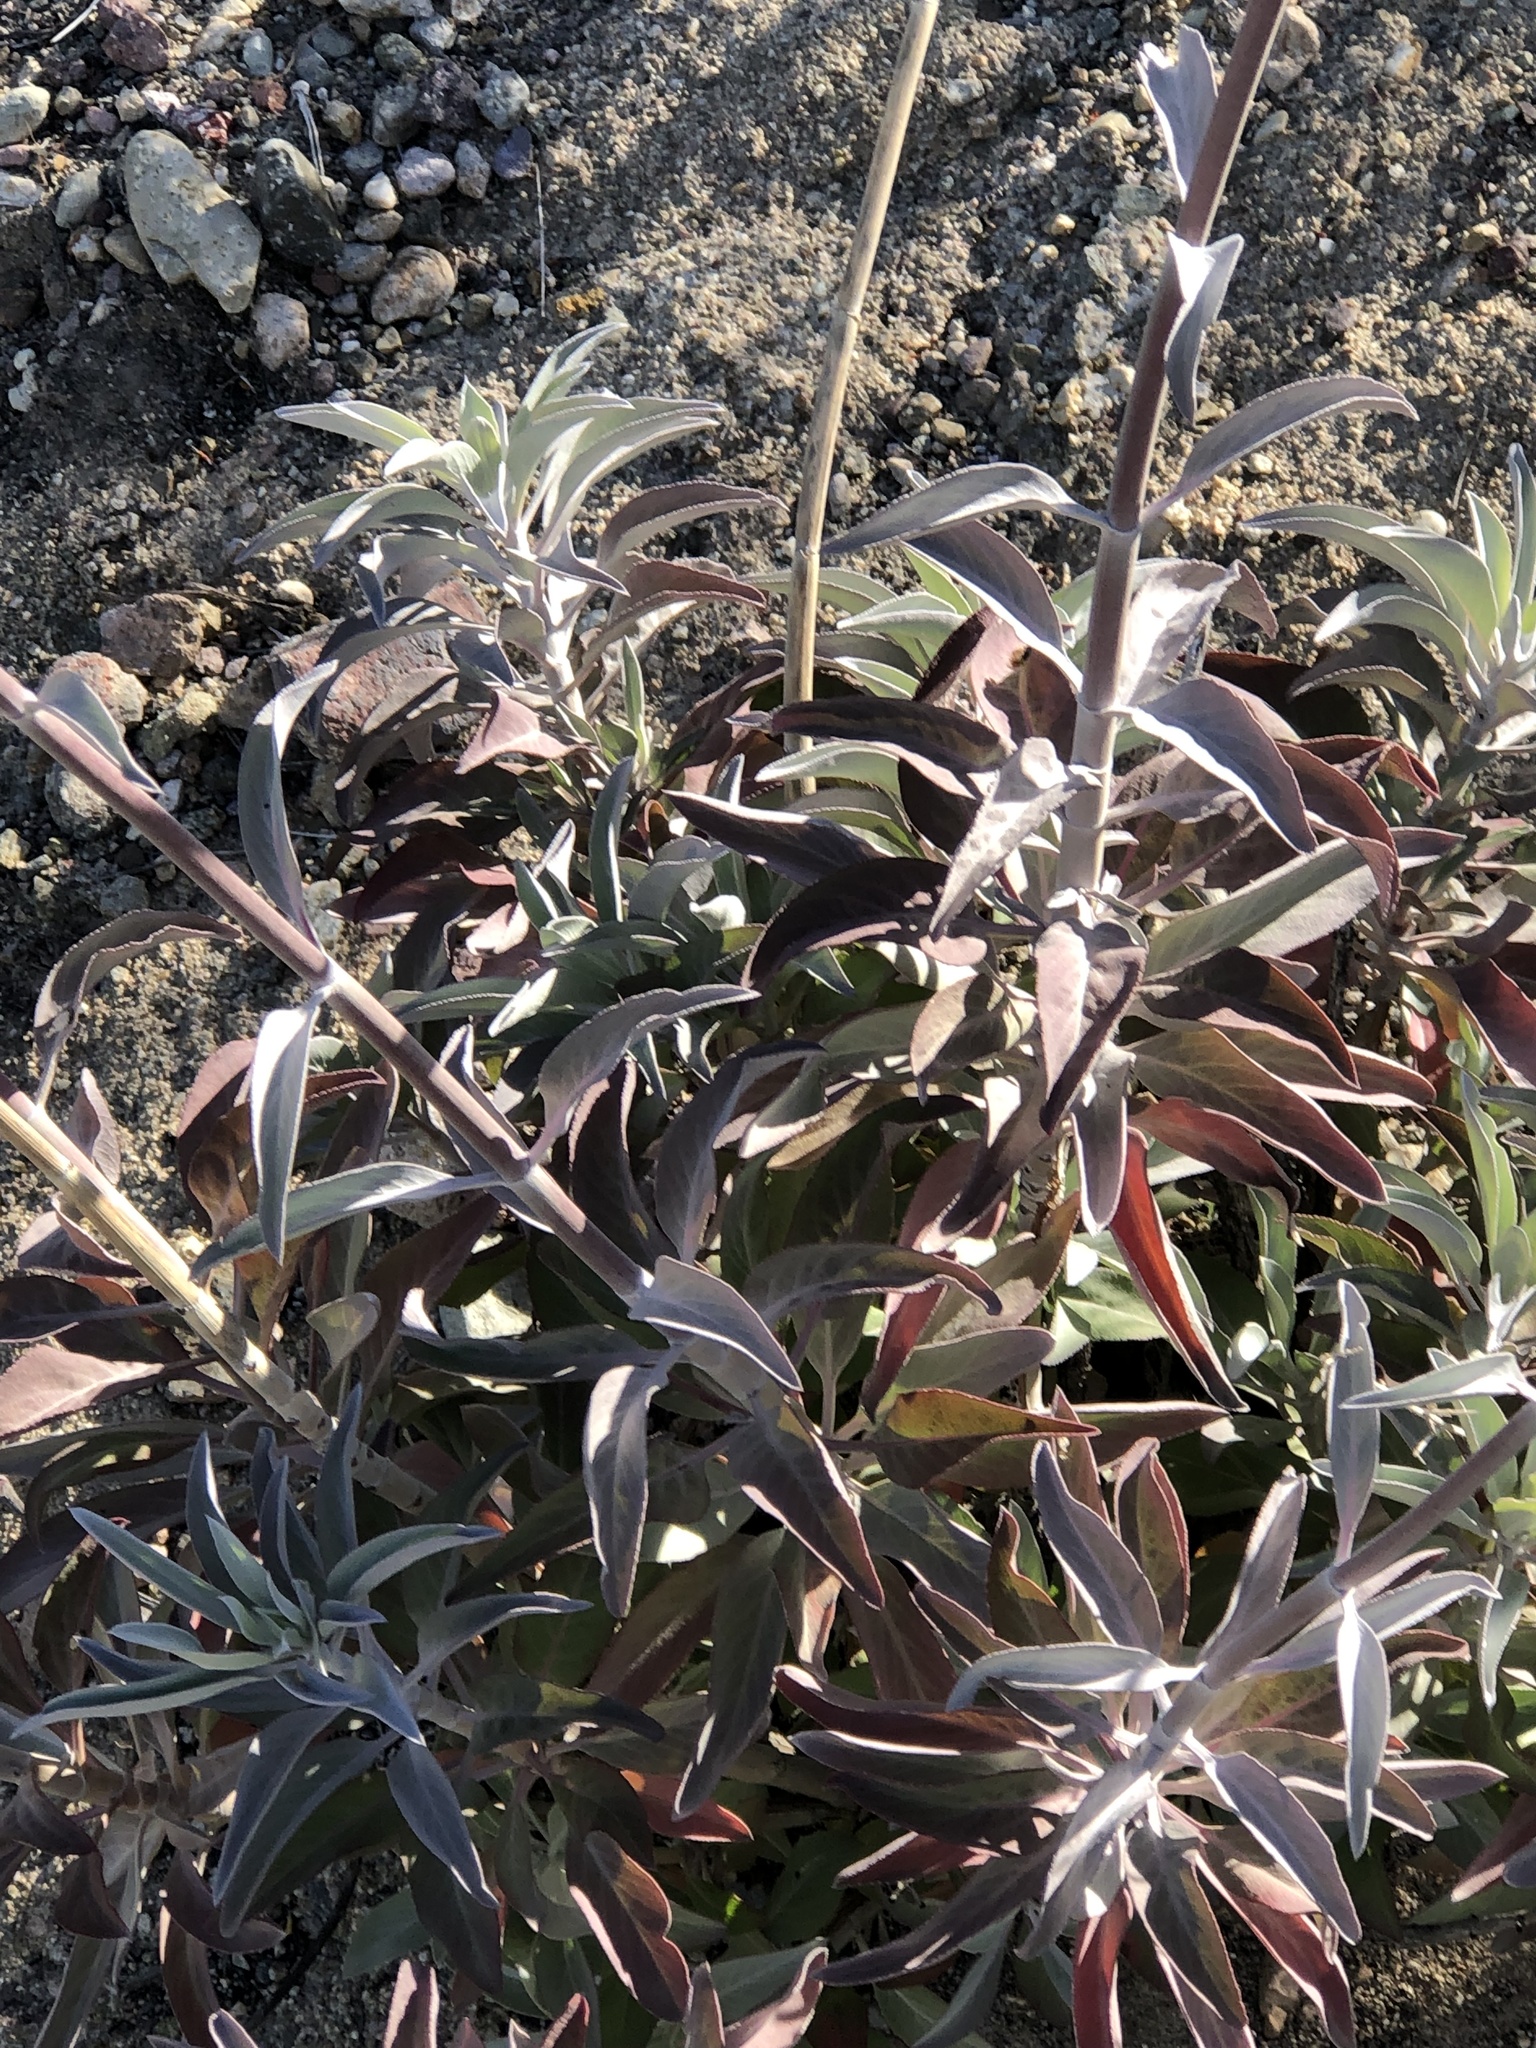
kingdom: Plantae
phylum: Tracheophyta
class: Magnoliopsida
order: Lamiales
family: Lamiaceae
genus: Salvia
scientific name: Salvia apiana
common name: White sage
